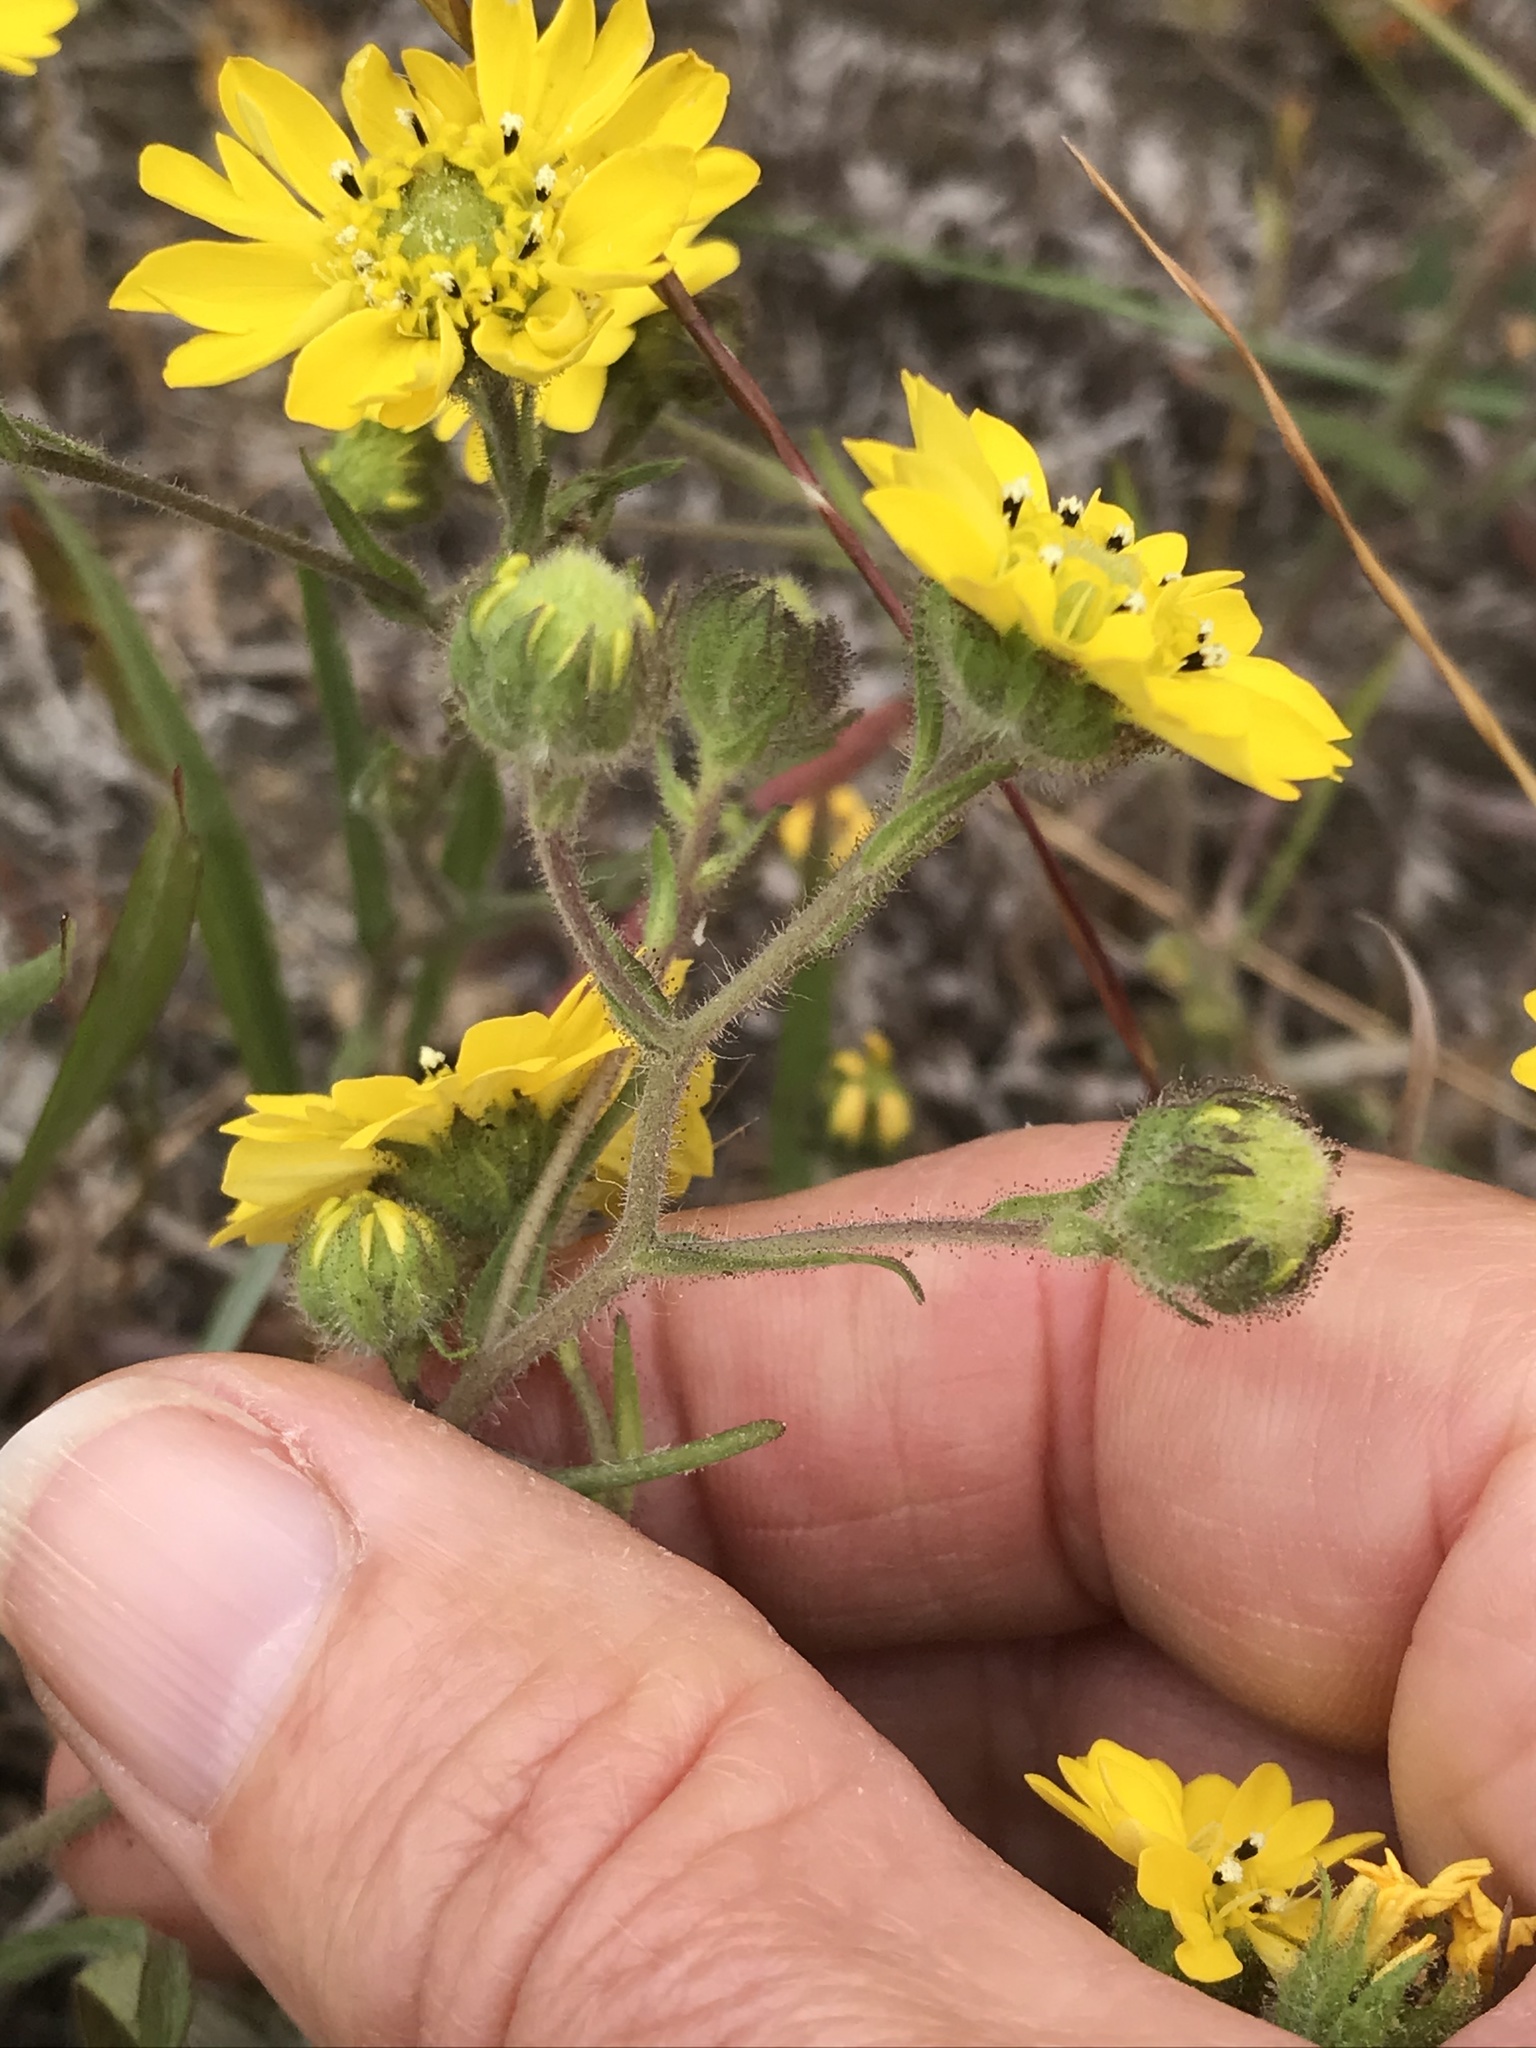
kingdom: Plantae
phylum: Tracheophyta
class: Magnoliopsida
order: Asterales
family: Asteraceae
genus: Hemizonia
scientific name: Hemizonia congesta
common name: Hayfield tarweed
